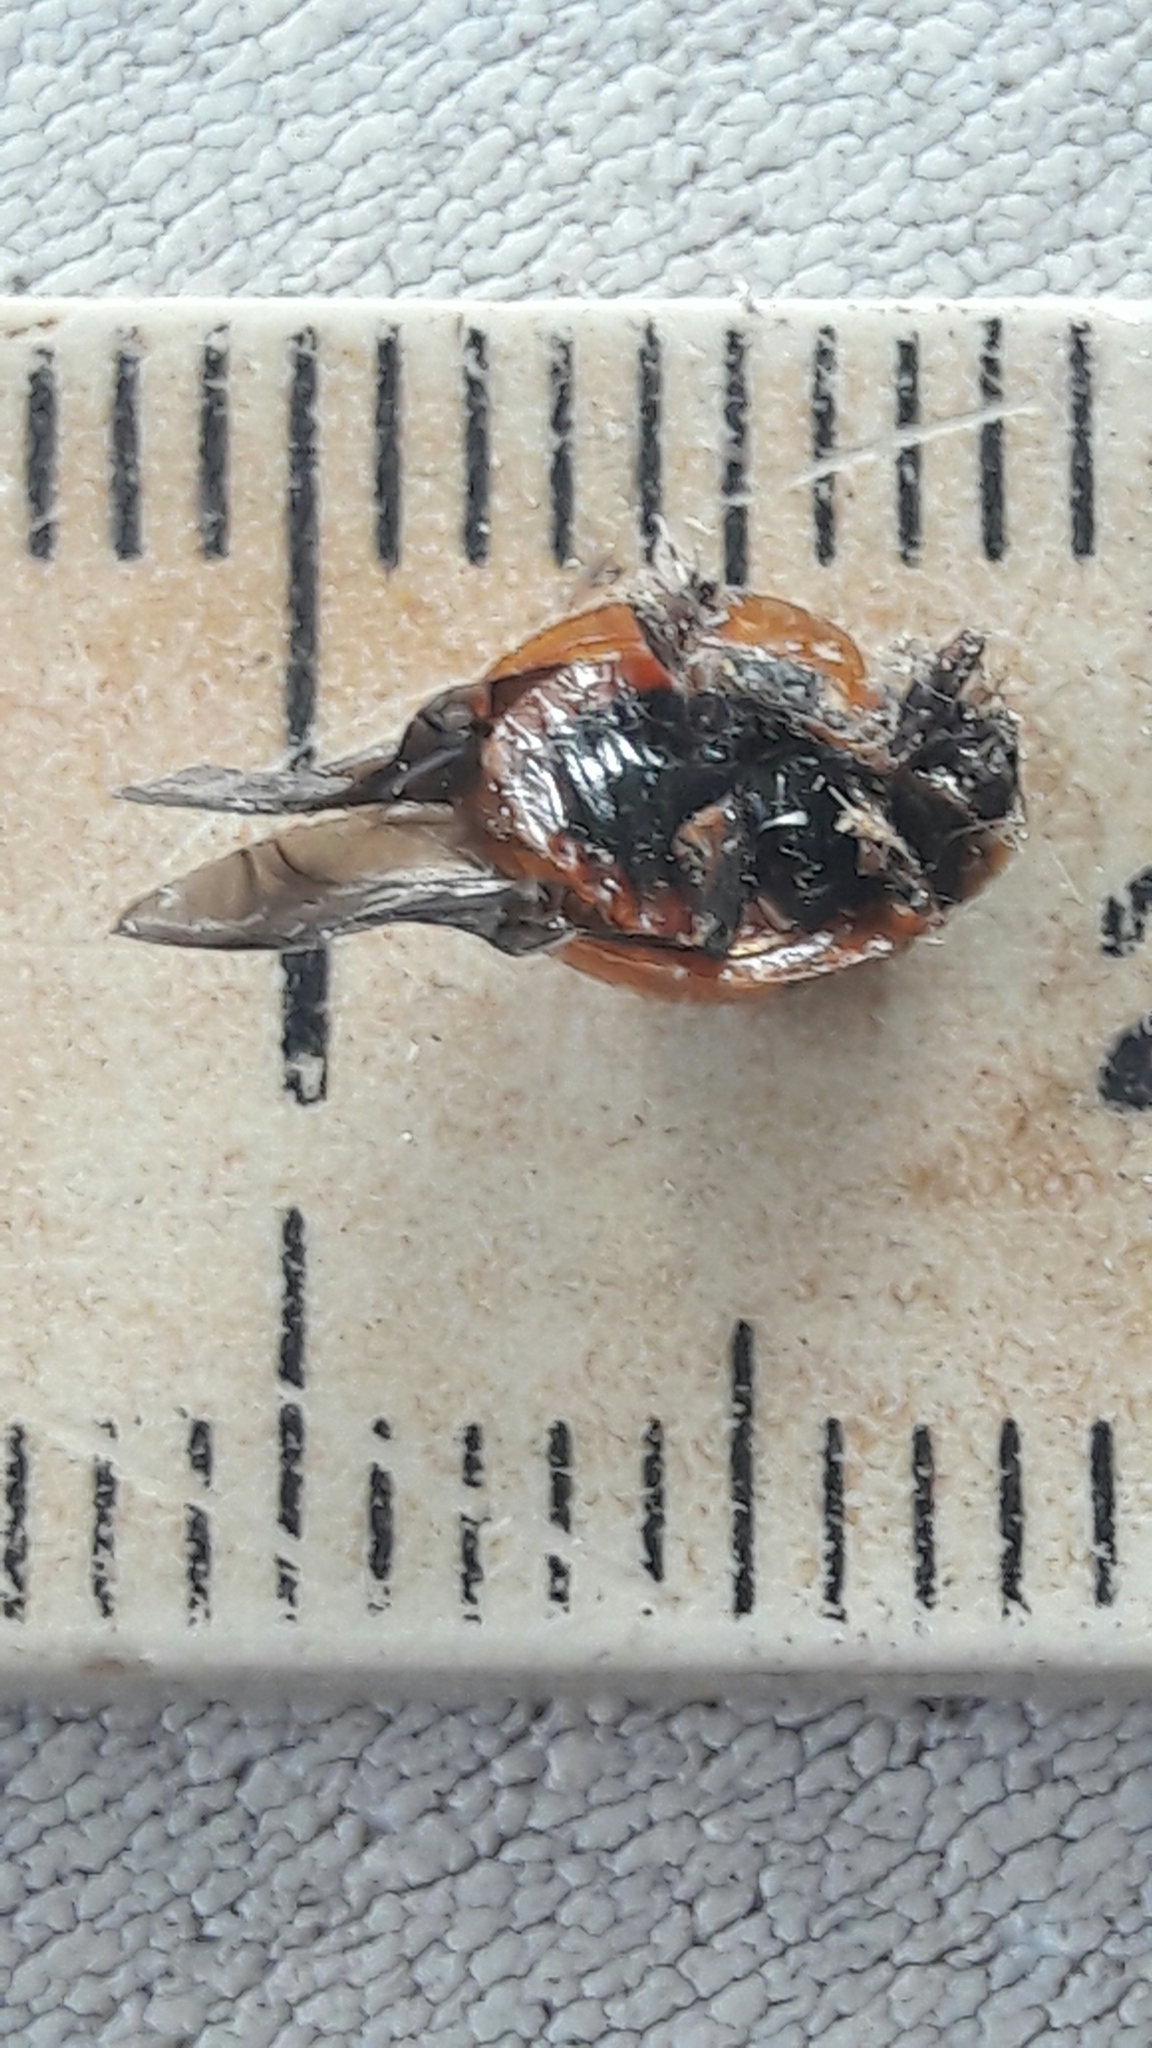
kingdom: Animalia
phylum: Arthropoda
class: Insecta
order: Coleoptera
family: Coccinellidae
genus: Harmonia
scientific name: Harmonia axyridis
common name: Harlequin ladybird
